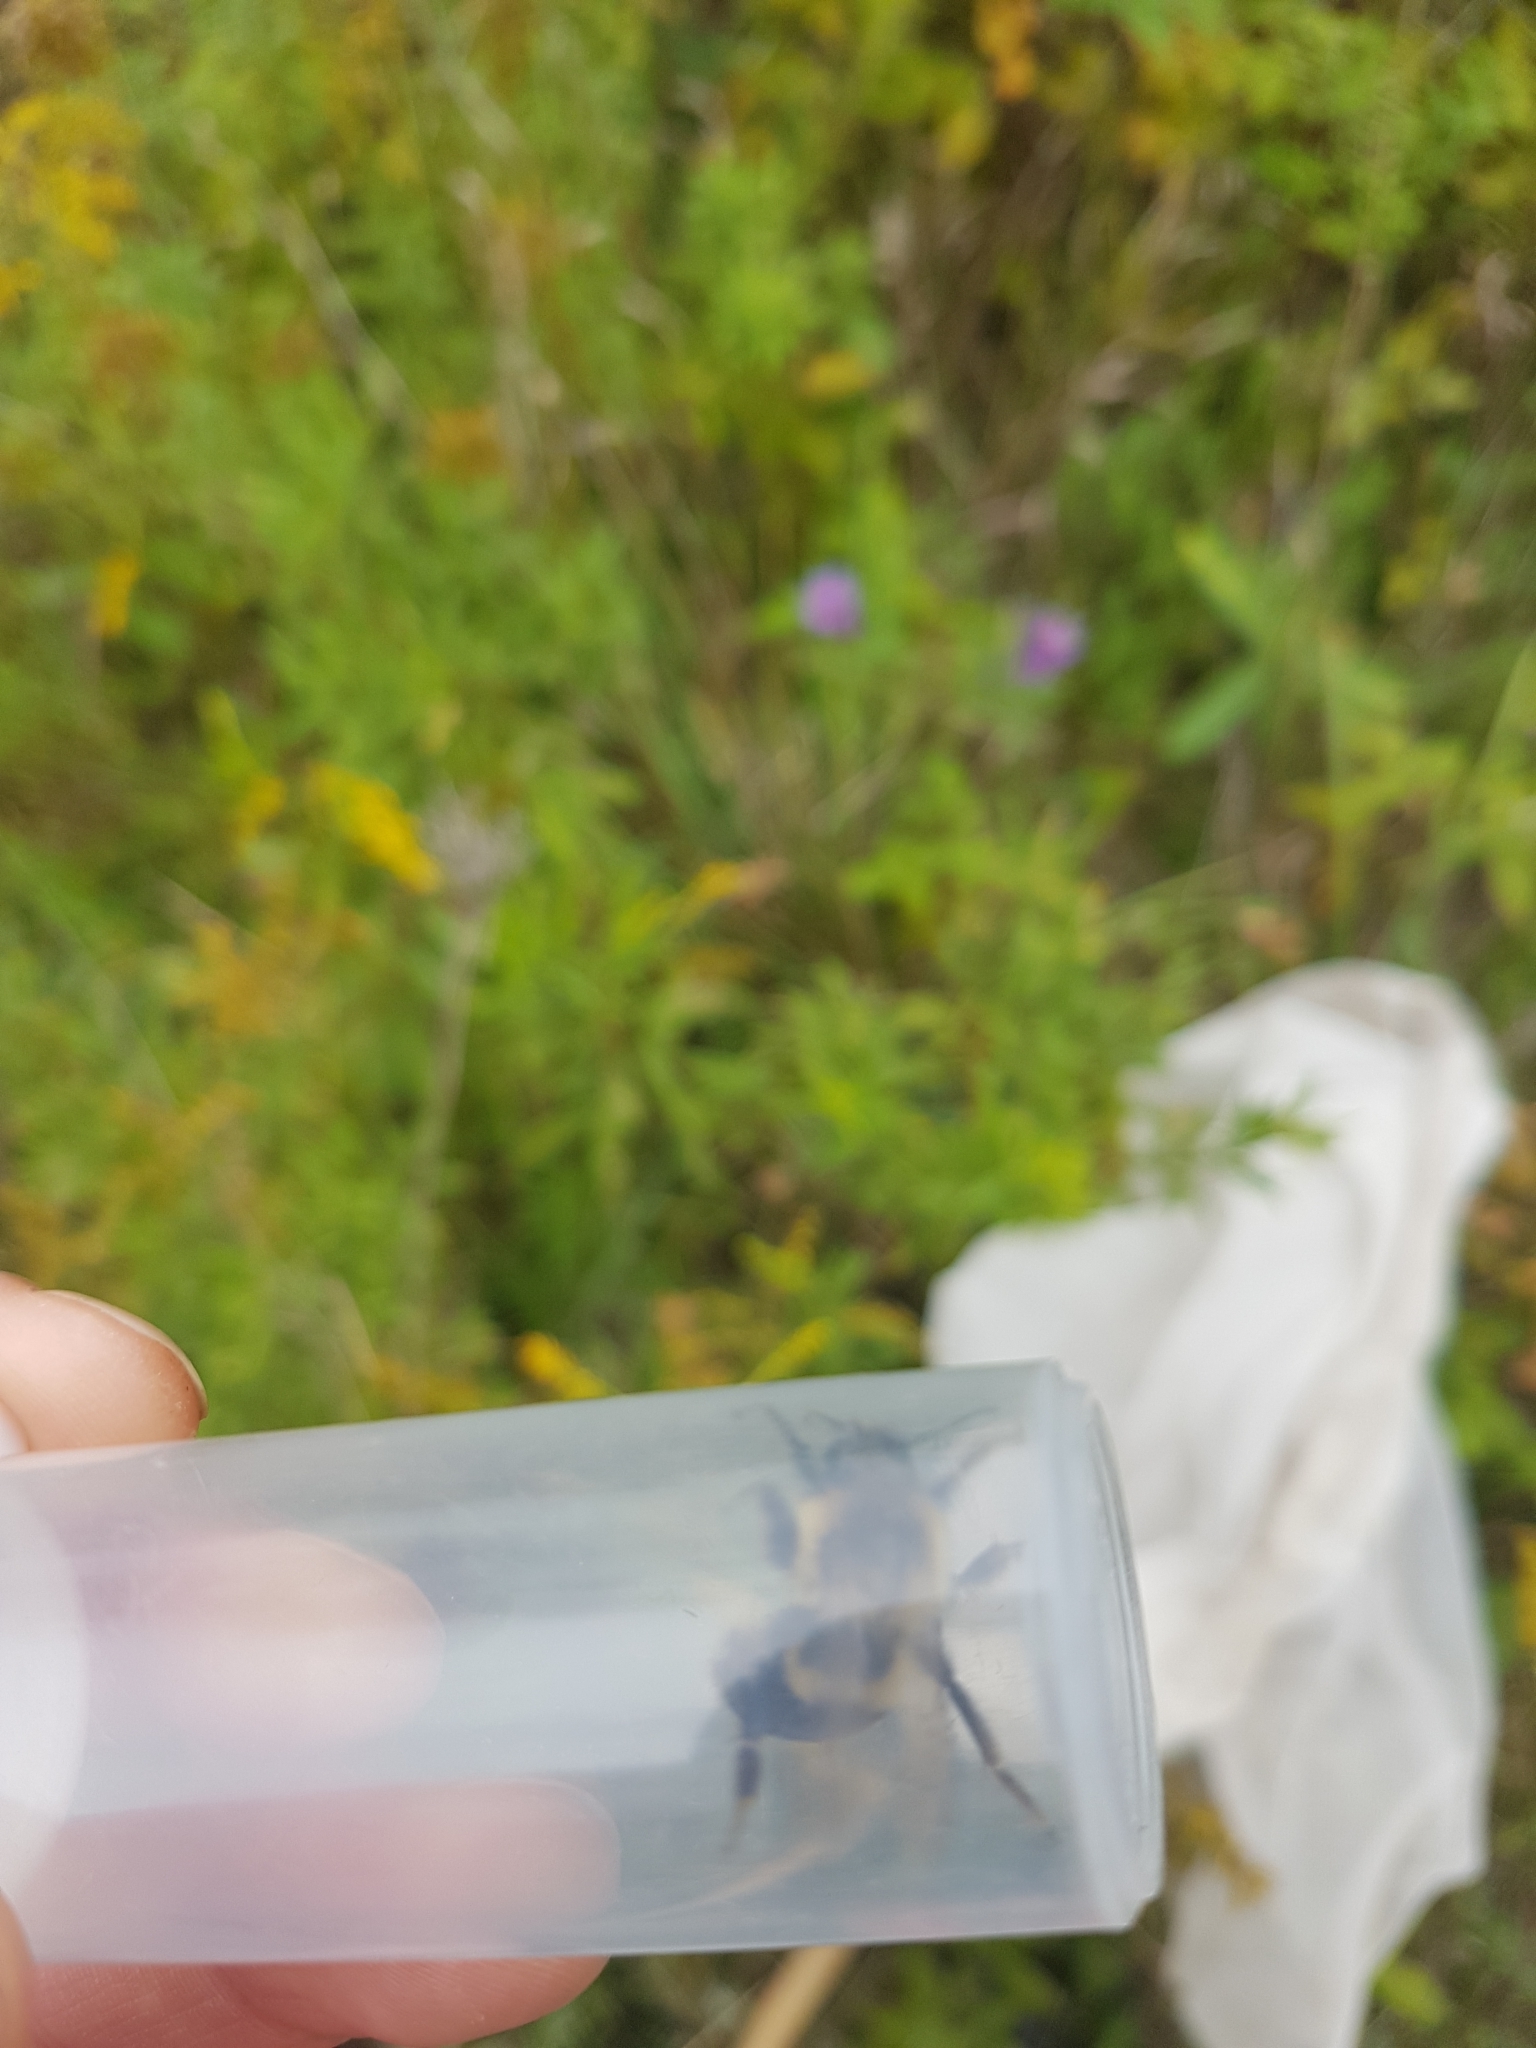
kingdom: Animalia
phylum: Arthropoda
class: Insecta
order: Hymenoptera
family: Apidae
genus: Bombus
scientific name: Bombus impatiens
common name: Common eastern bumble bee
